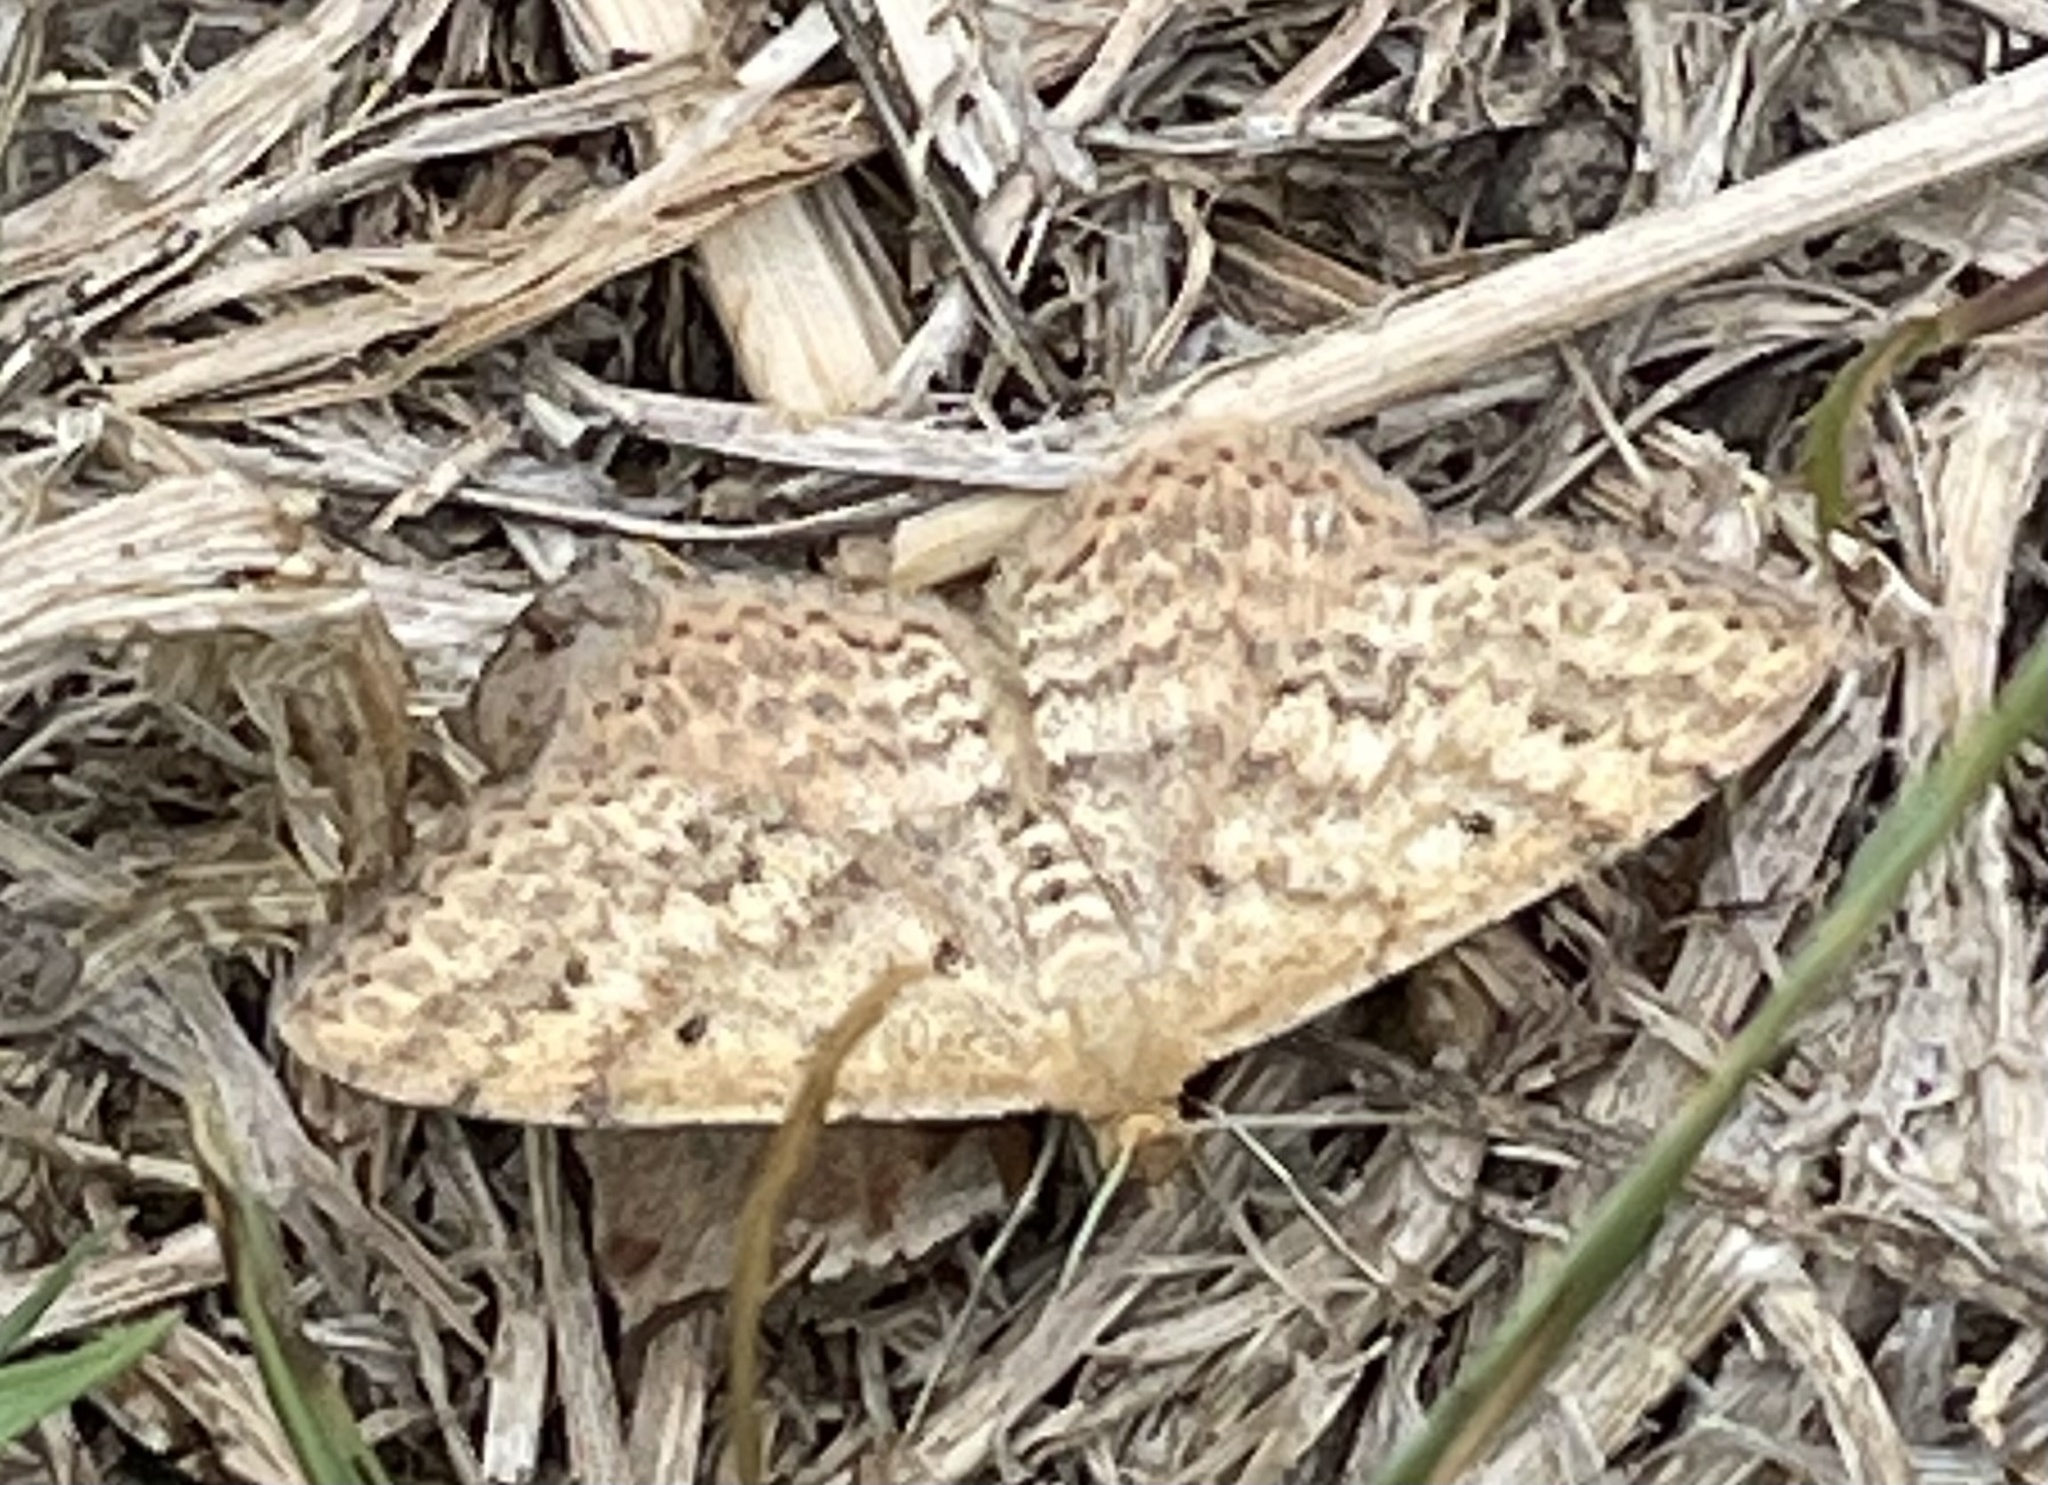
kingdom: Animalia
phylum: Arthropoda
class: Insecta
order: Lepidoptera
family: Geometridae
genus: Scopula
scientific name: Scopula rubraria
